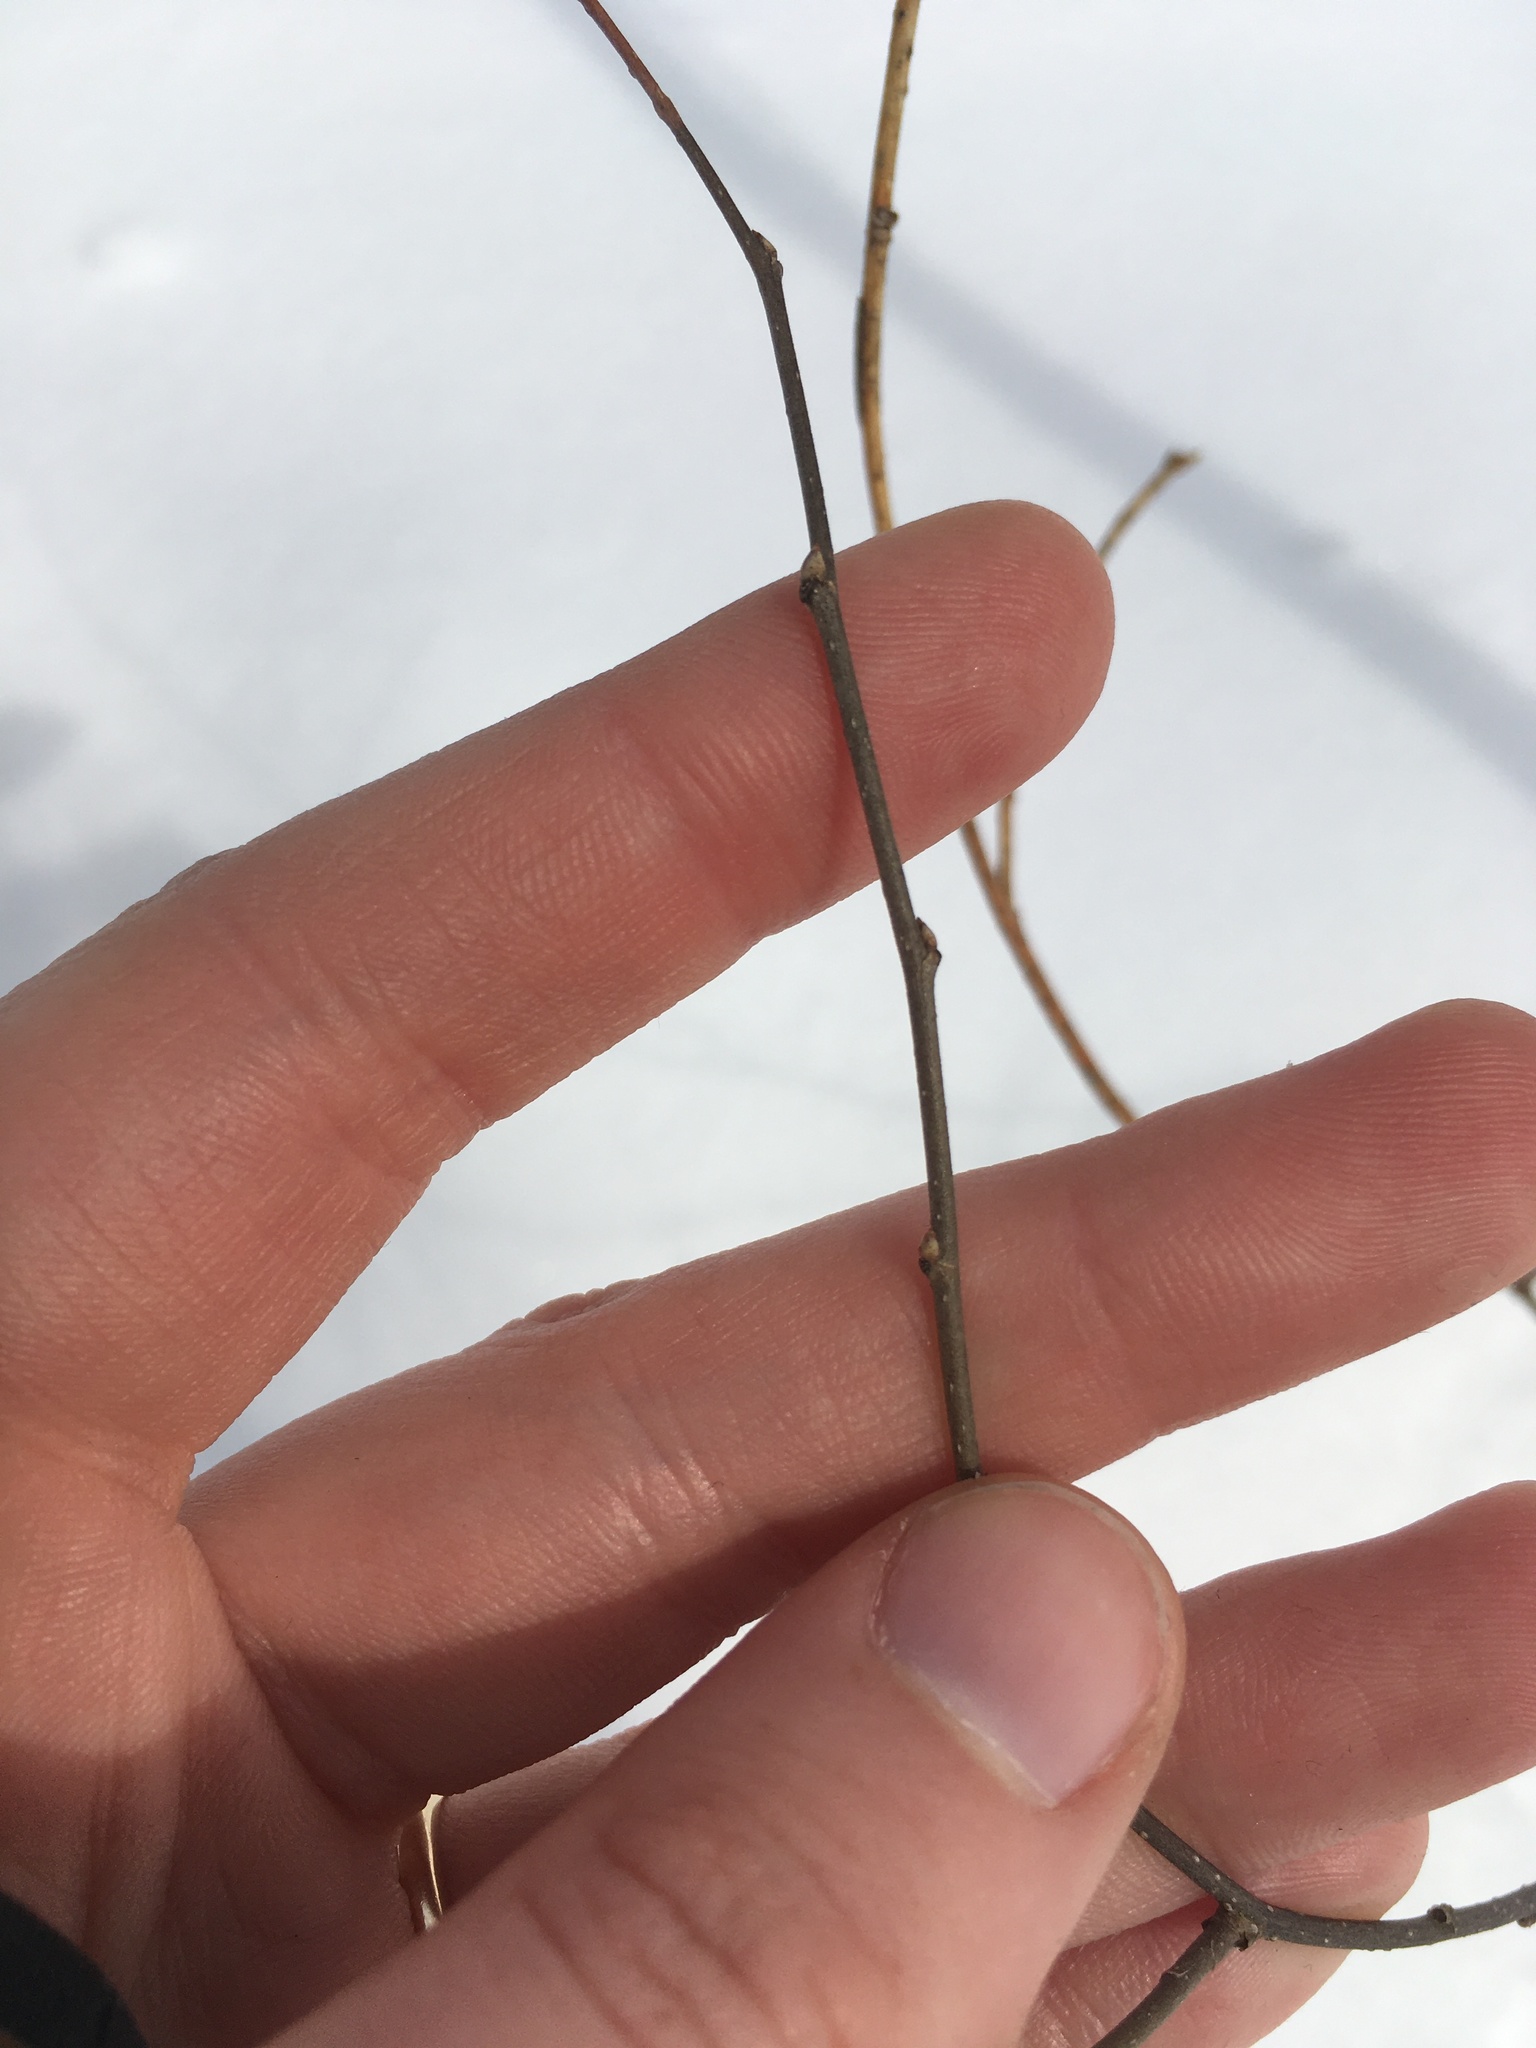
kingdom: Plantae
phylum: Tracheophyta
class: Magnoliopsida
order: Rosales
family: Cannabaceae
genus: Celtis
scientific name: Celtis occidentalis
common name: Common hackberry
